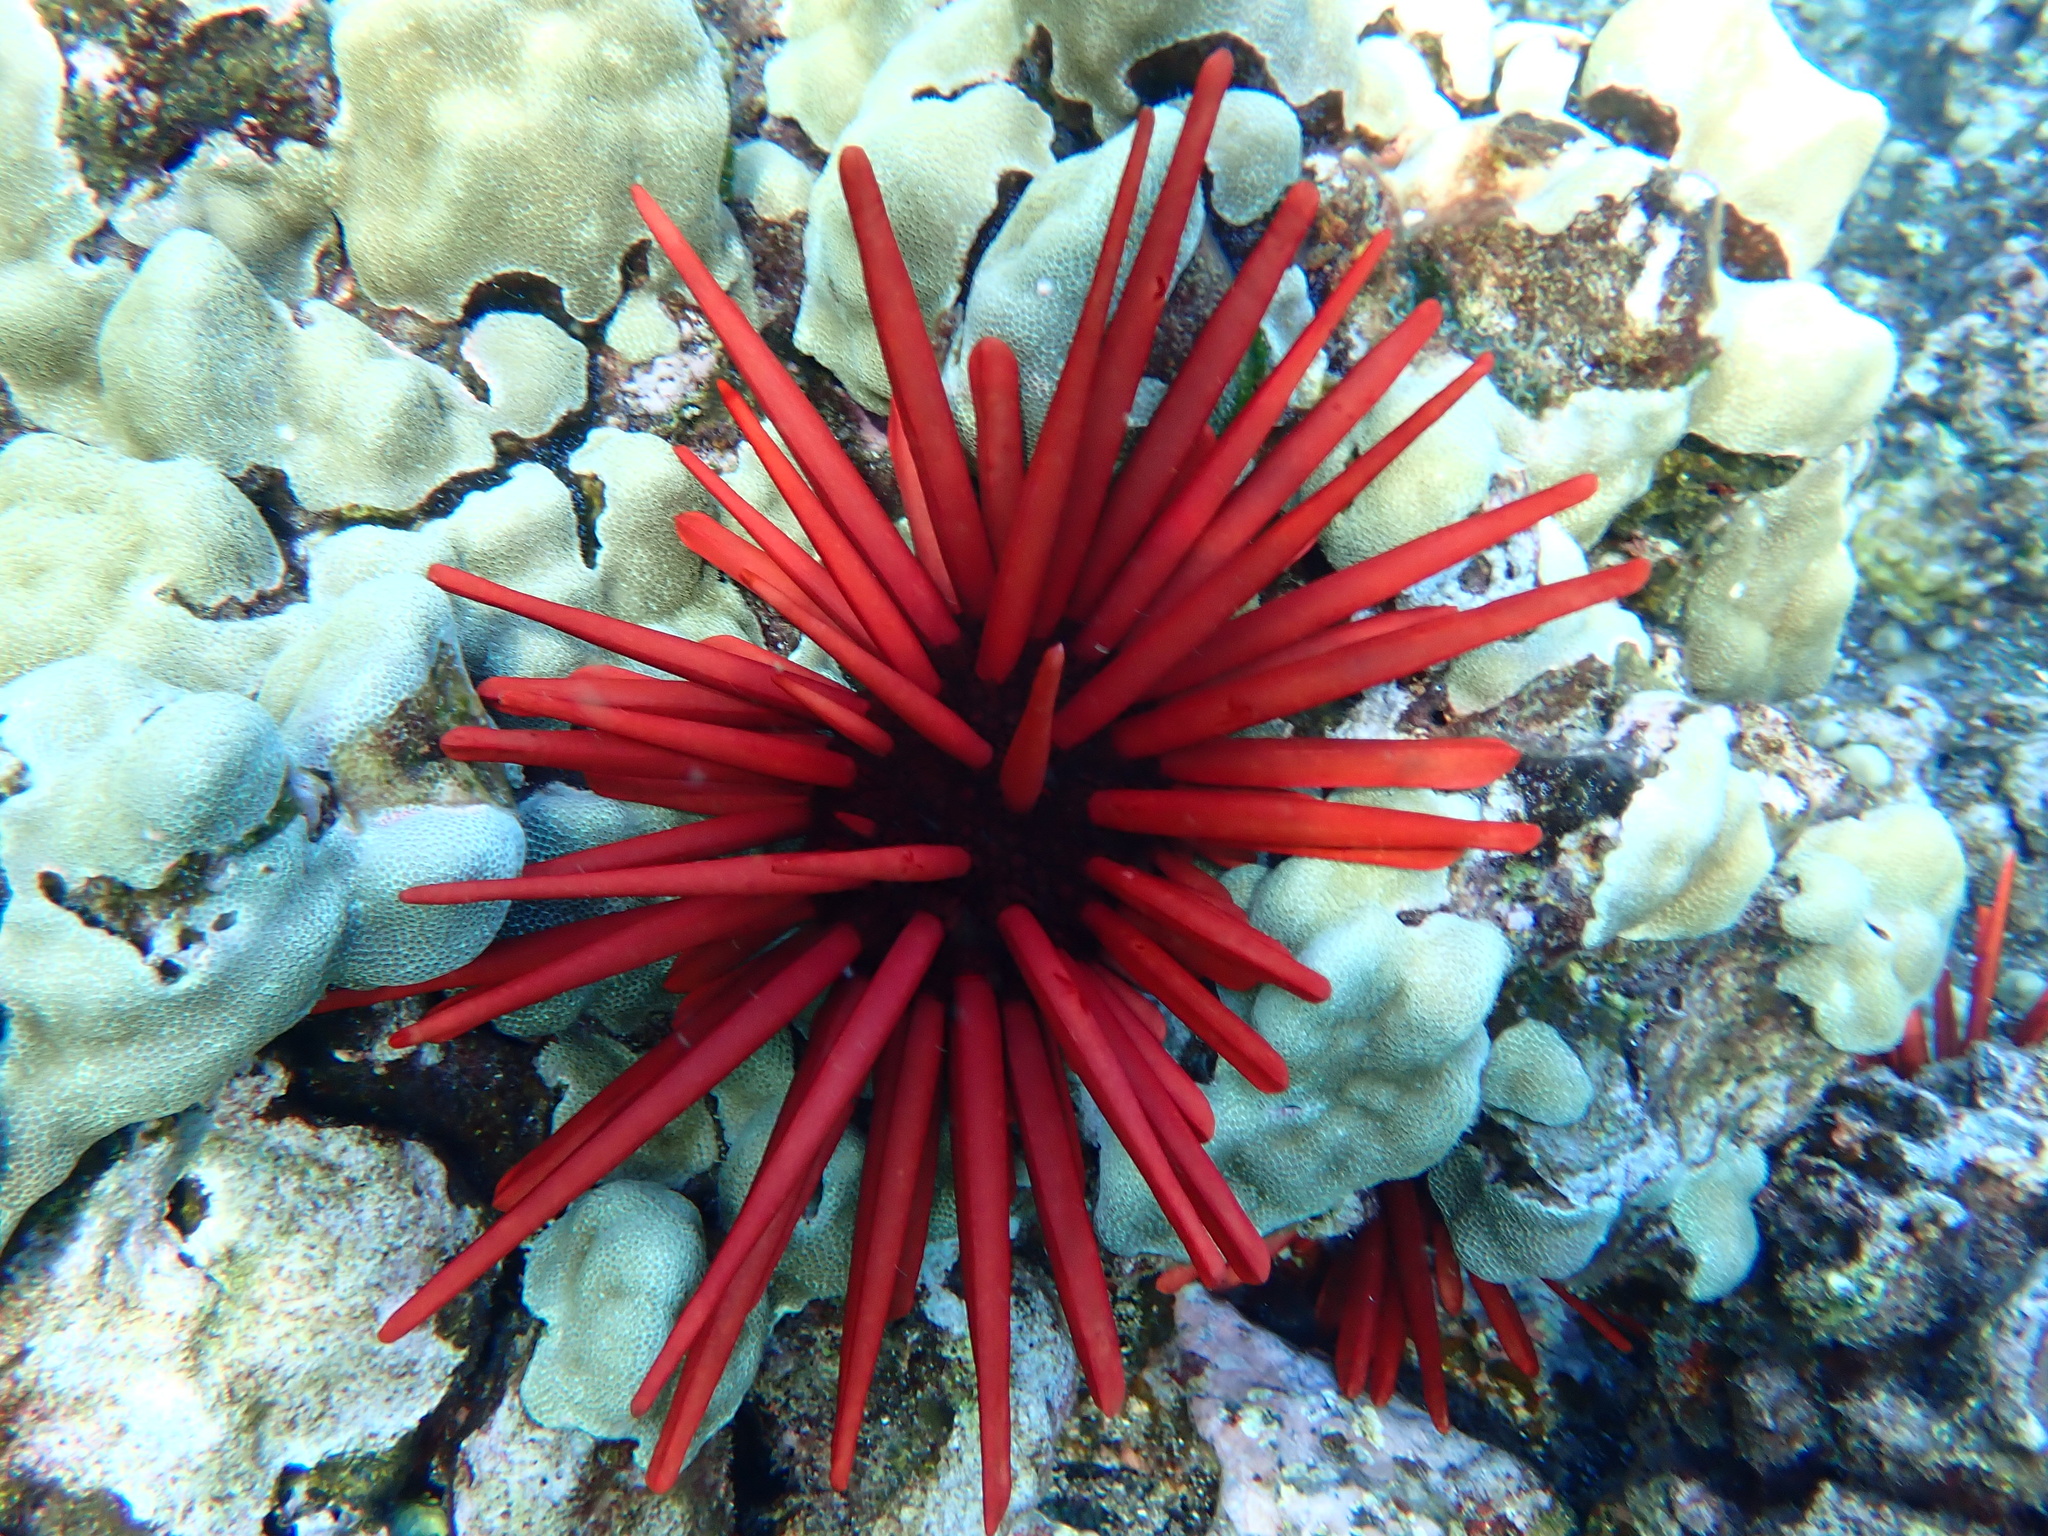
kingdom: Animalia
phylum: Echinodermata
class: Echinoidea
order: Camarodonta
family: Echinometridae
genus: Heterocentrotus
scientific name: Heterocentrotus mamillatus
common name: Slate pencil urchin
